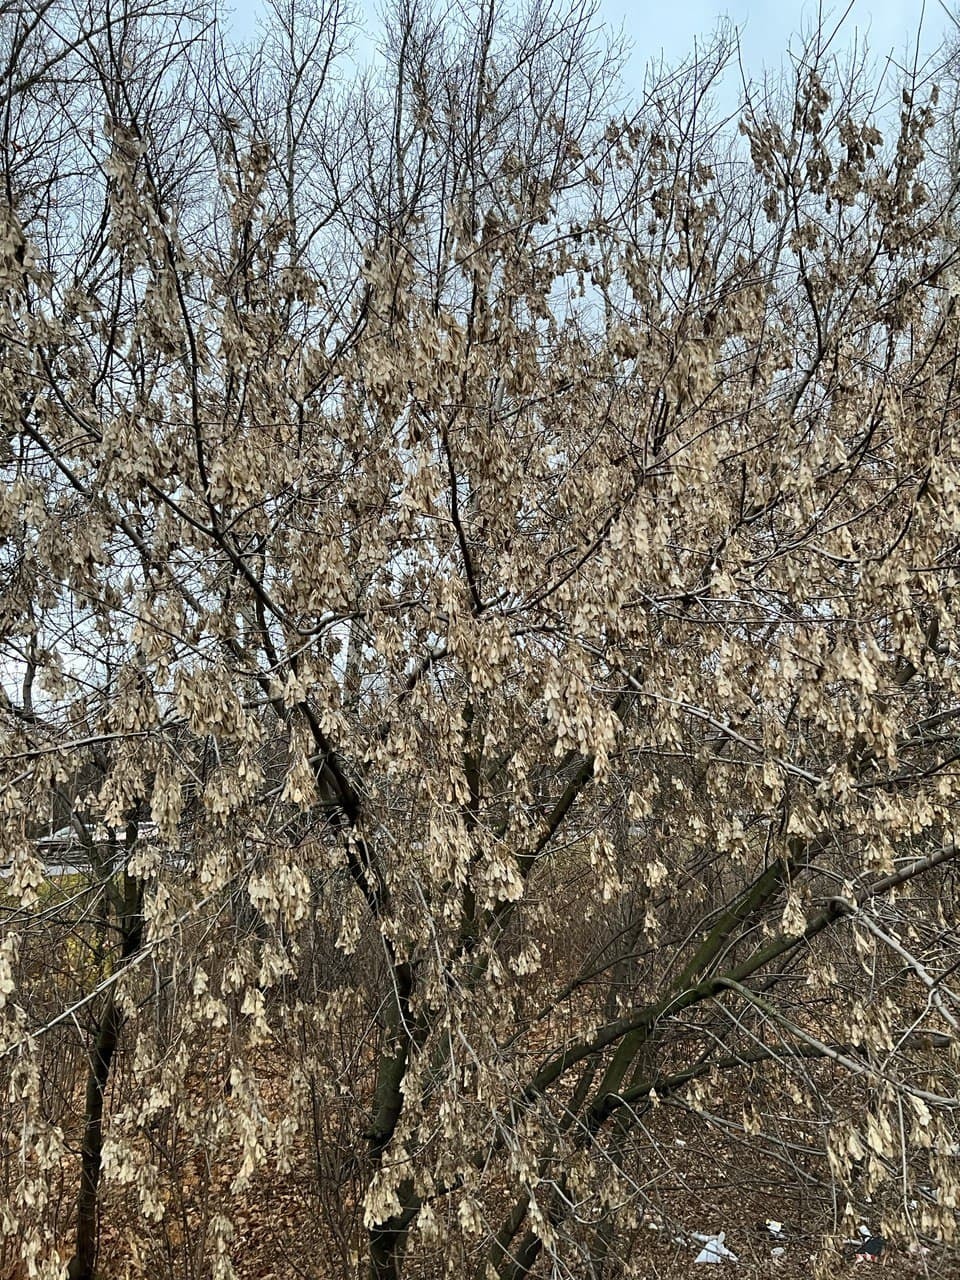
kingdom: Plantae
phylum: Tracheophyta
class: Magnoliopsida
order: Sapindales
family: Sapindaceae
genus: Acer
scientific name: Acer negundo
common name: Ashleaf maple
